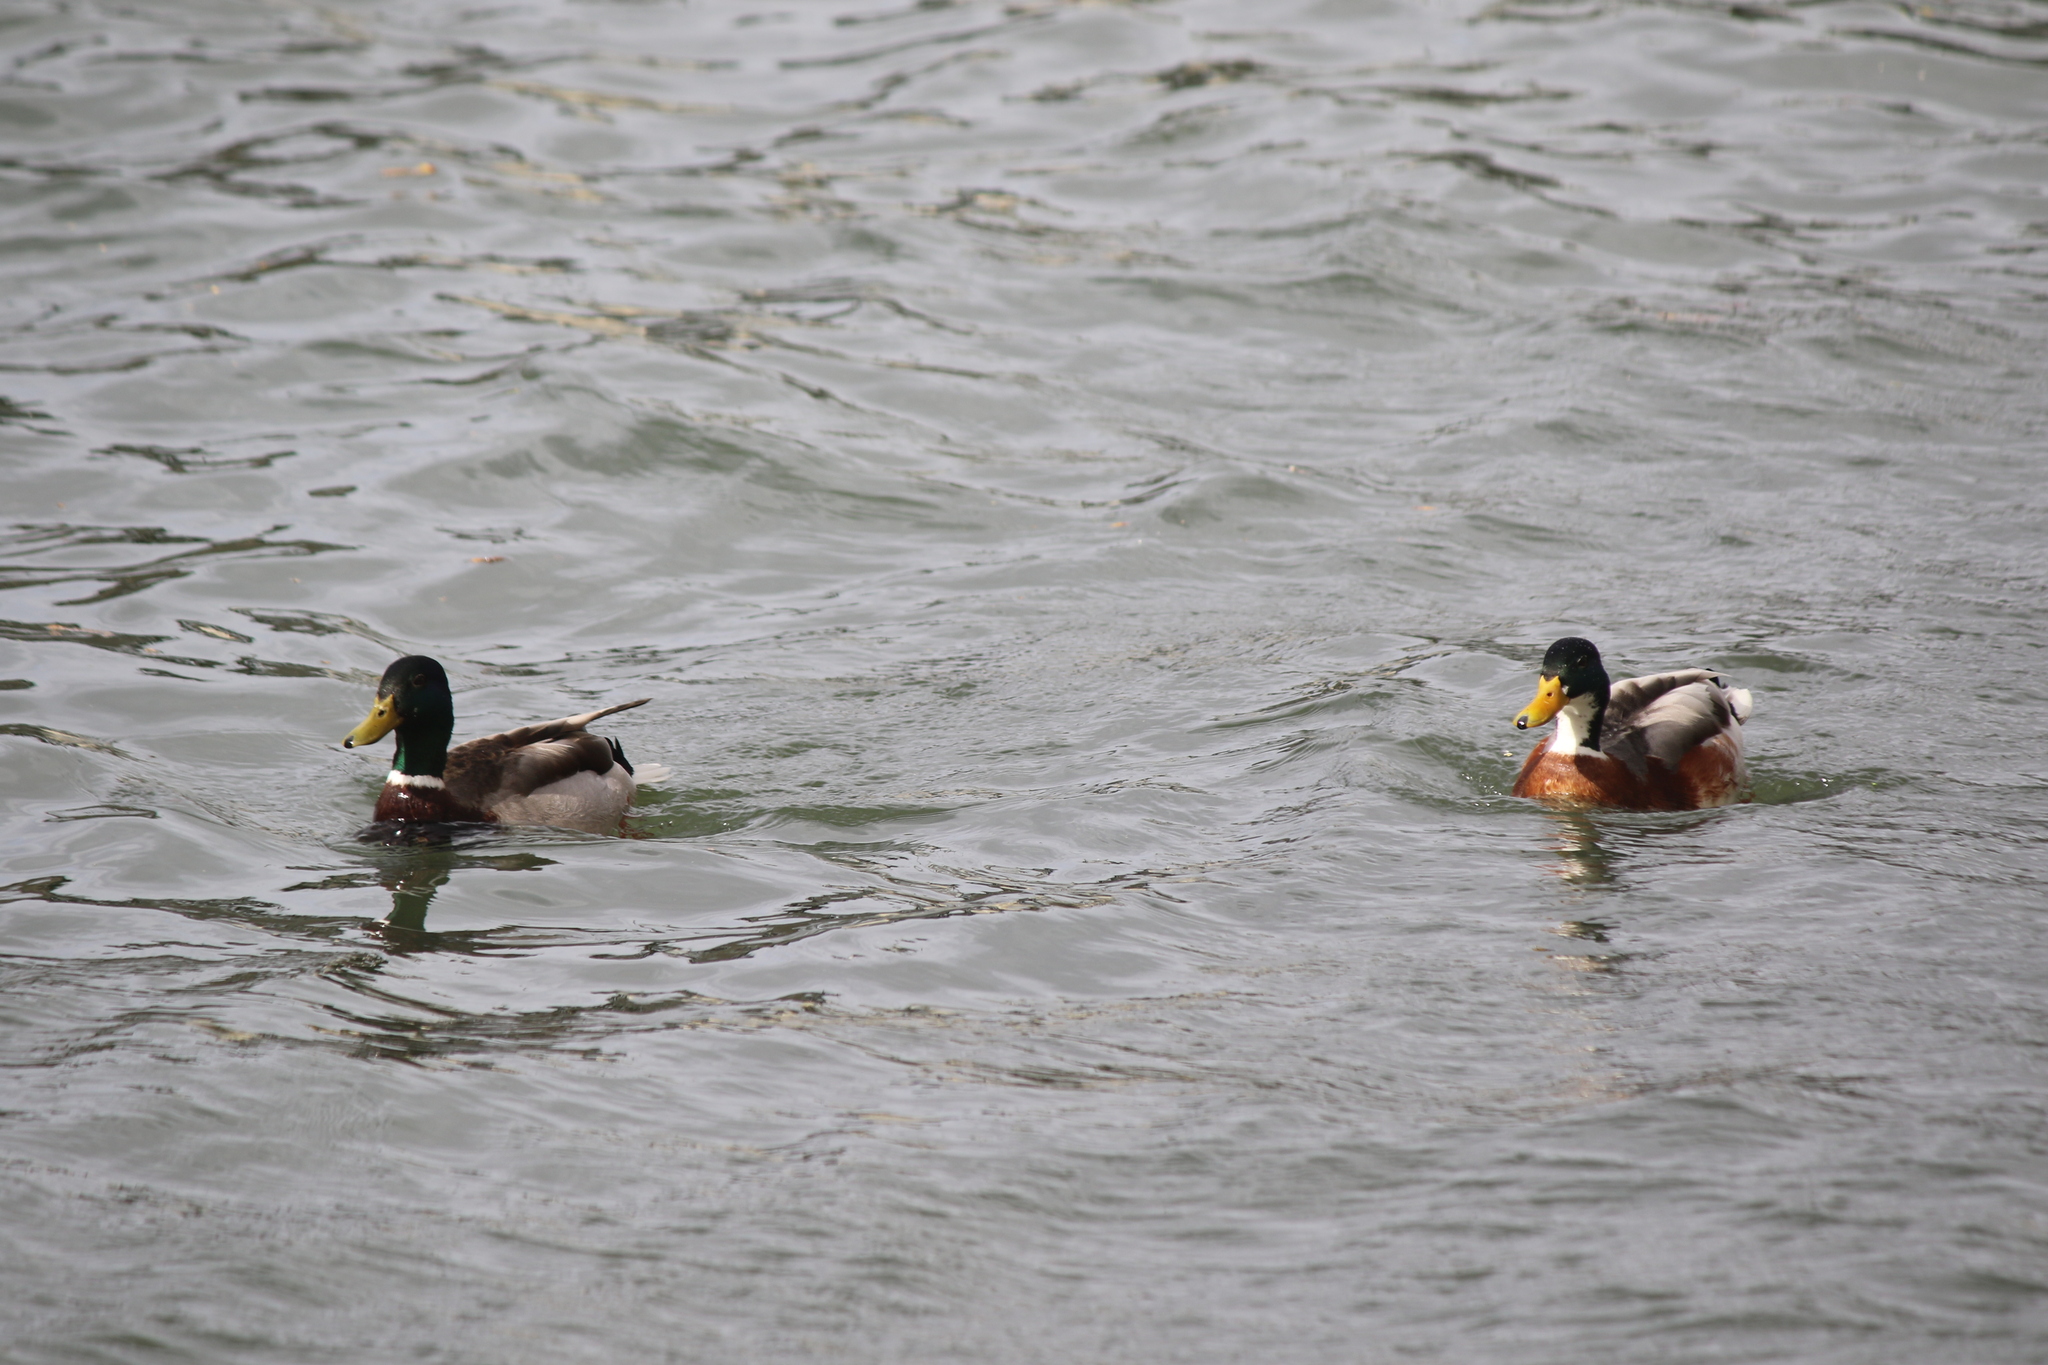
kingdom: Animalia
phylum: Chordata
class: Aves
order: Anseriformes
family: Anatidae
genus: Anas
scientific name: Anas platyrhynchos
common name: Mallard
